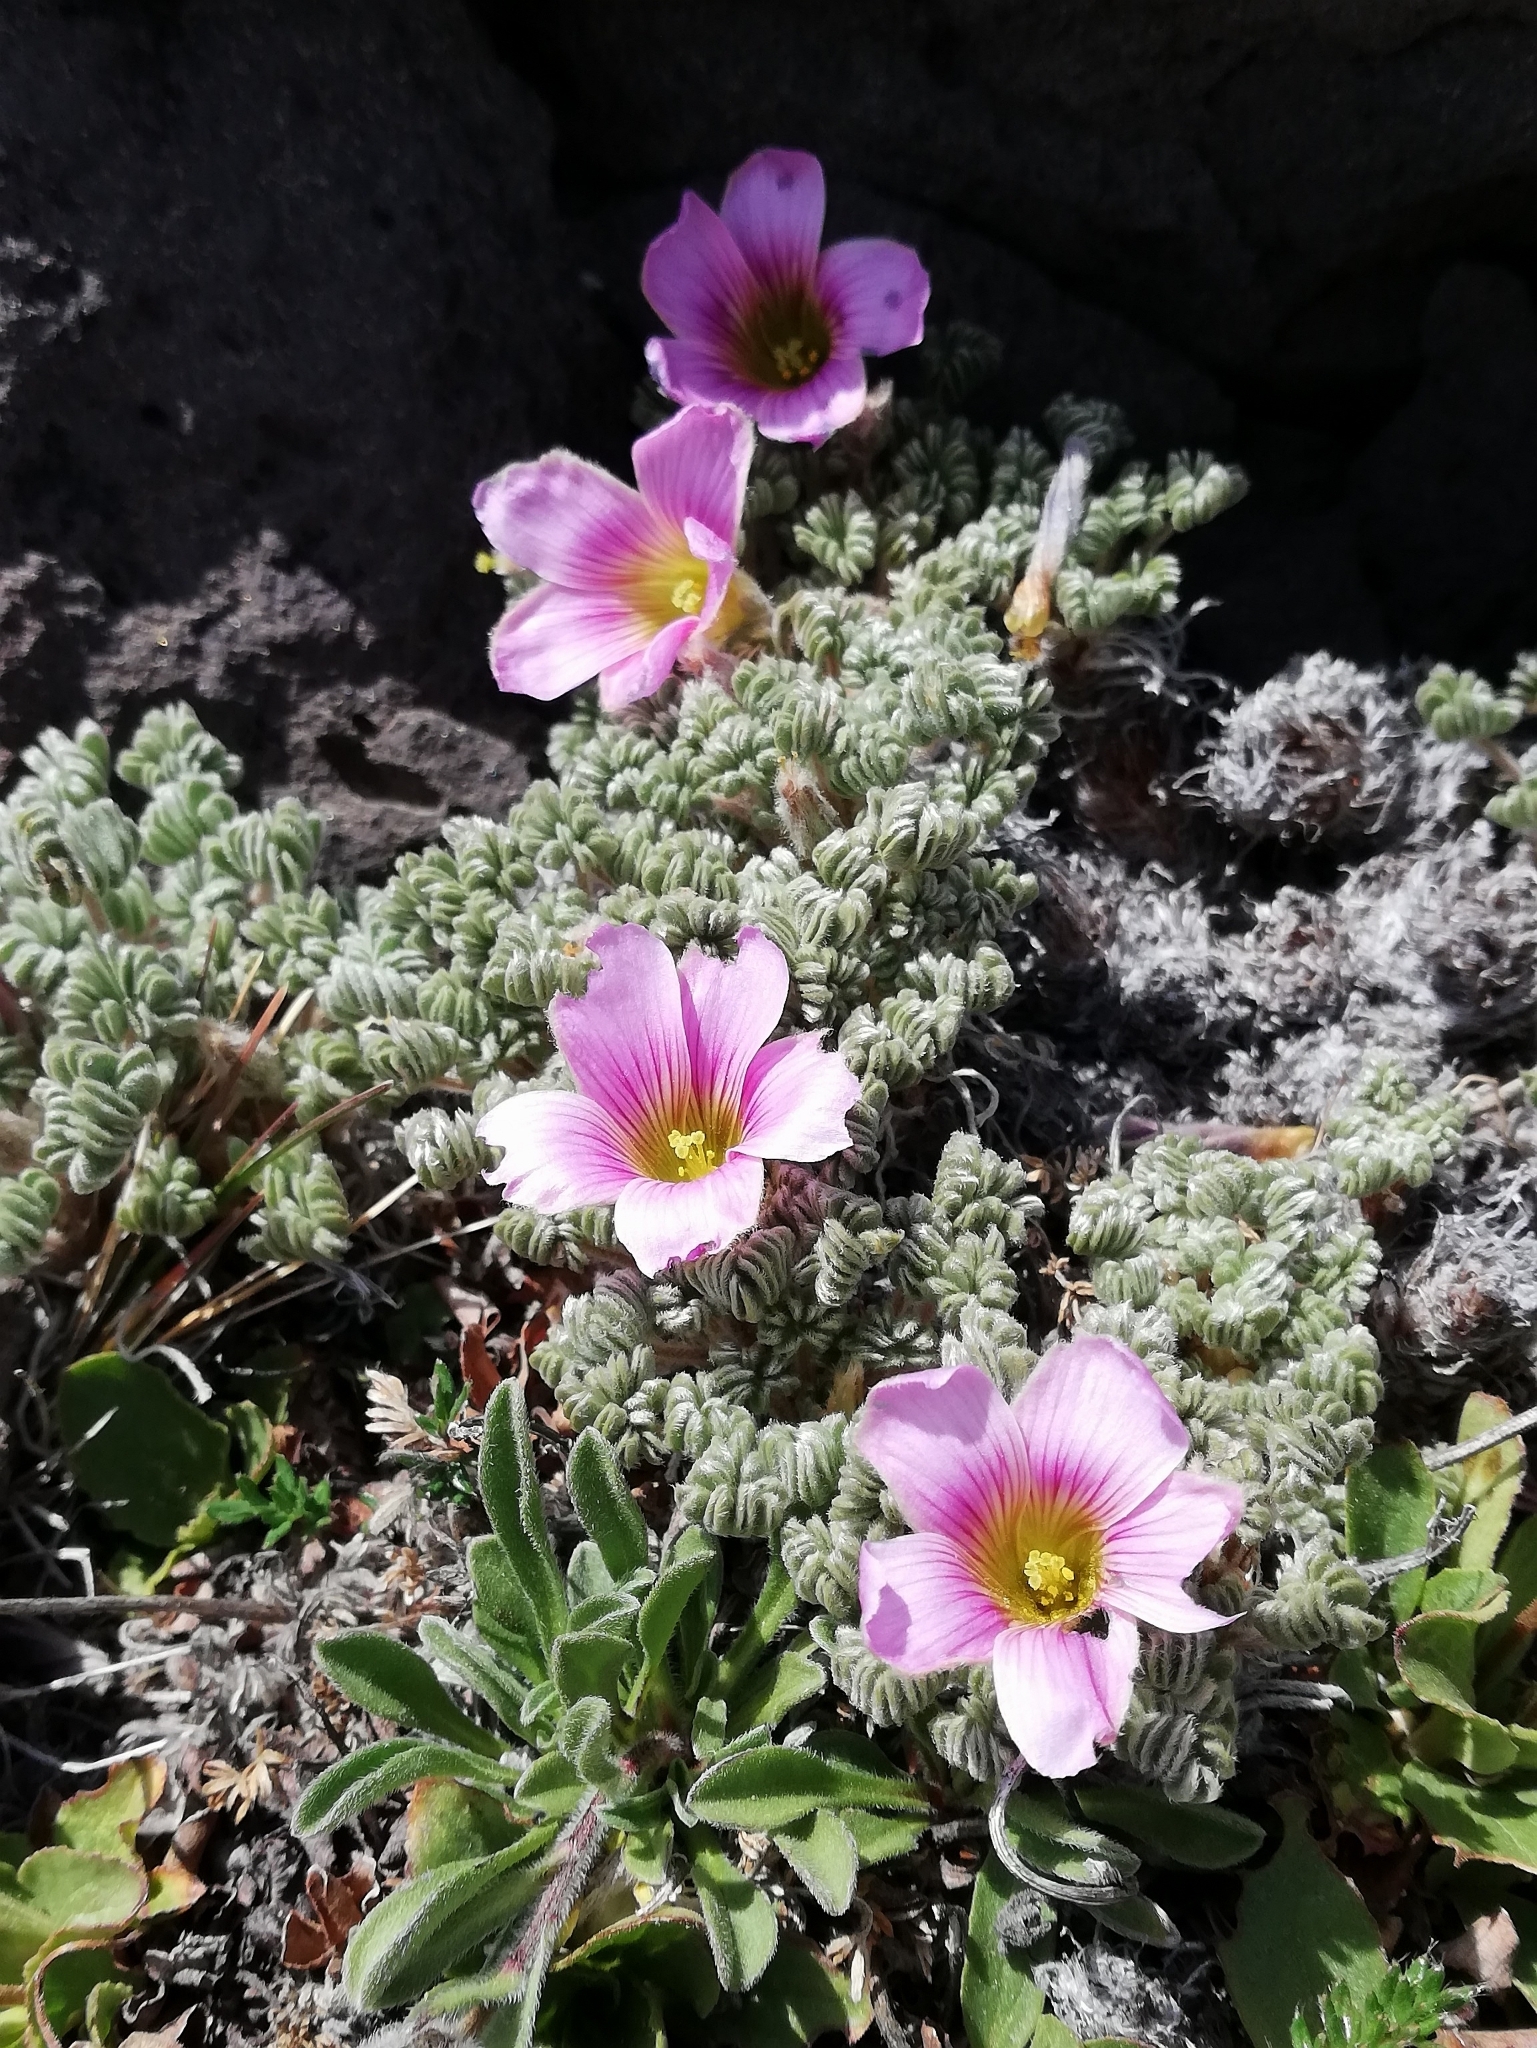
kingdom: Plantae
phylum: Tracheophyta
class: Magnoliopsida
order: Oxalidales
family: Oxalidaceae
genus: Oxalis
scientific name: Oxalis enneaphylla
